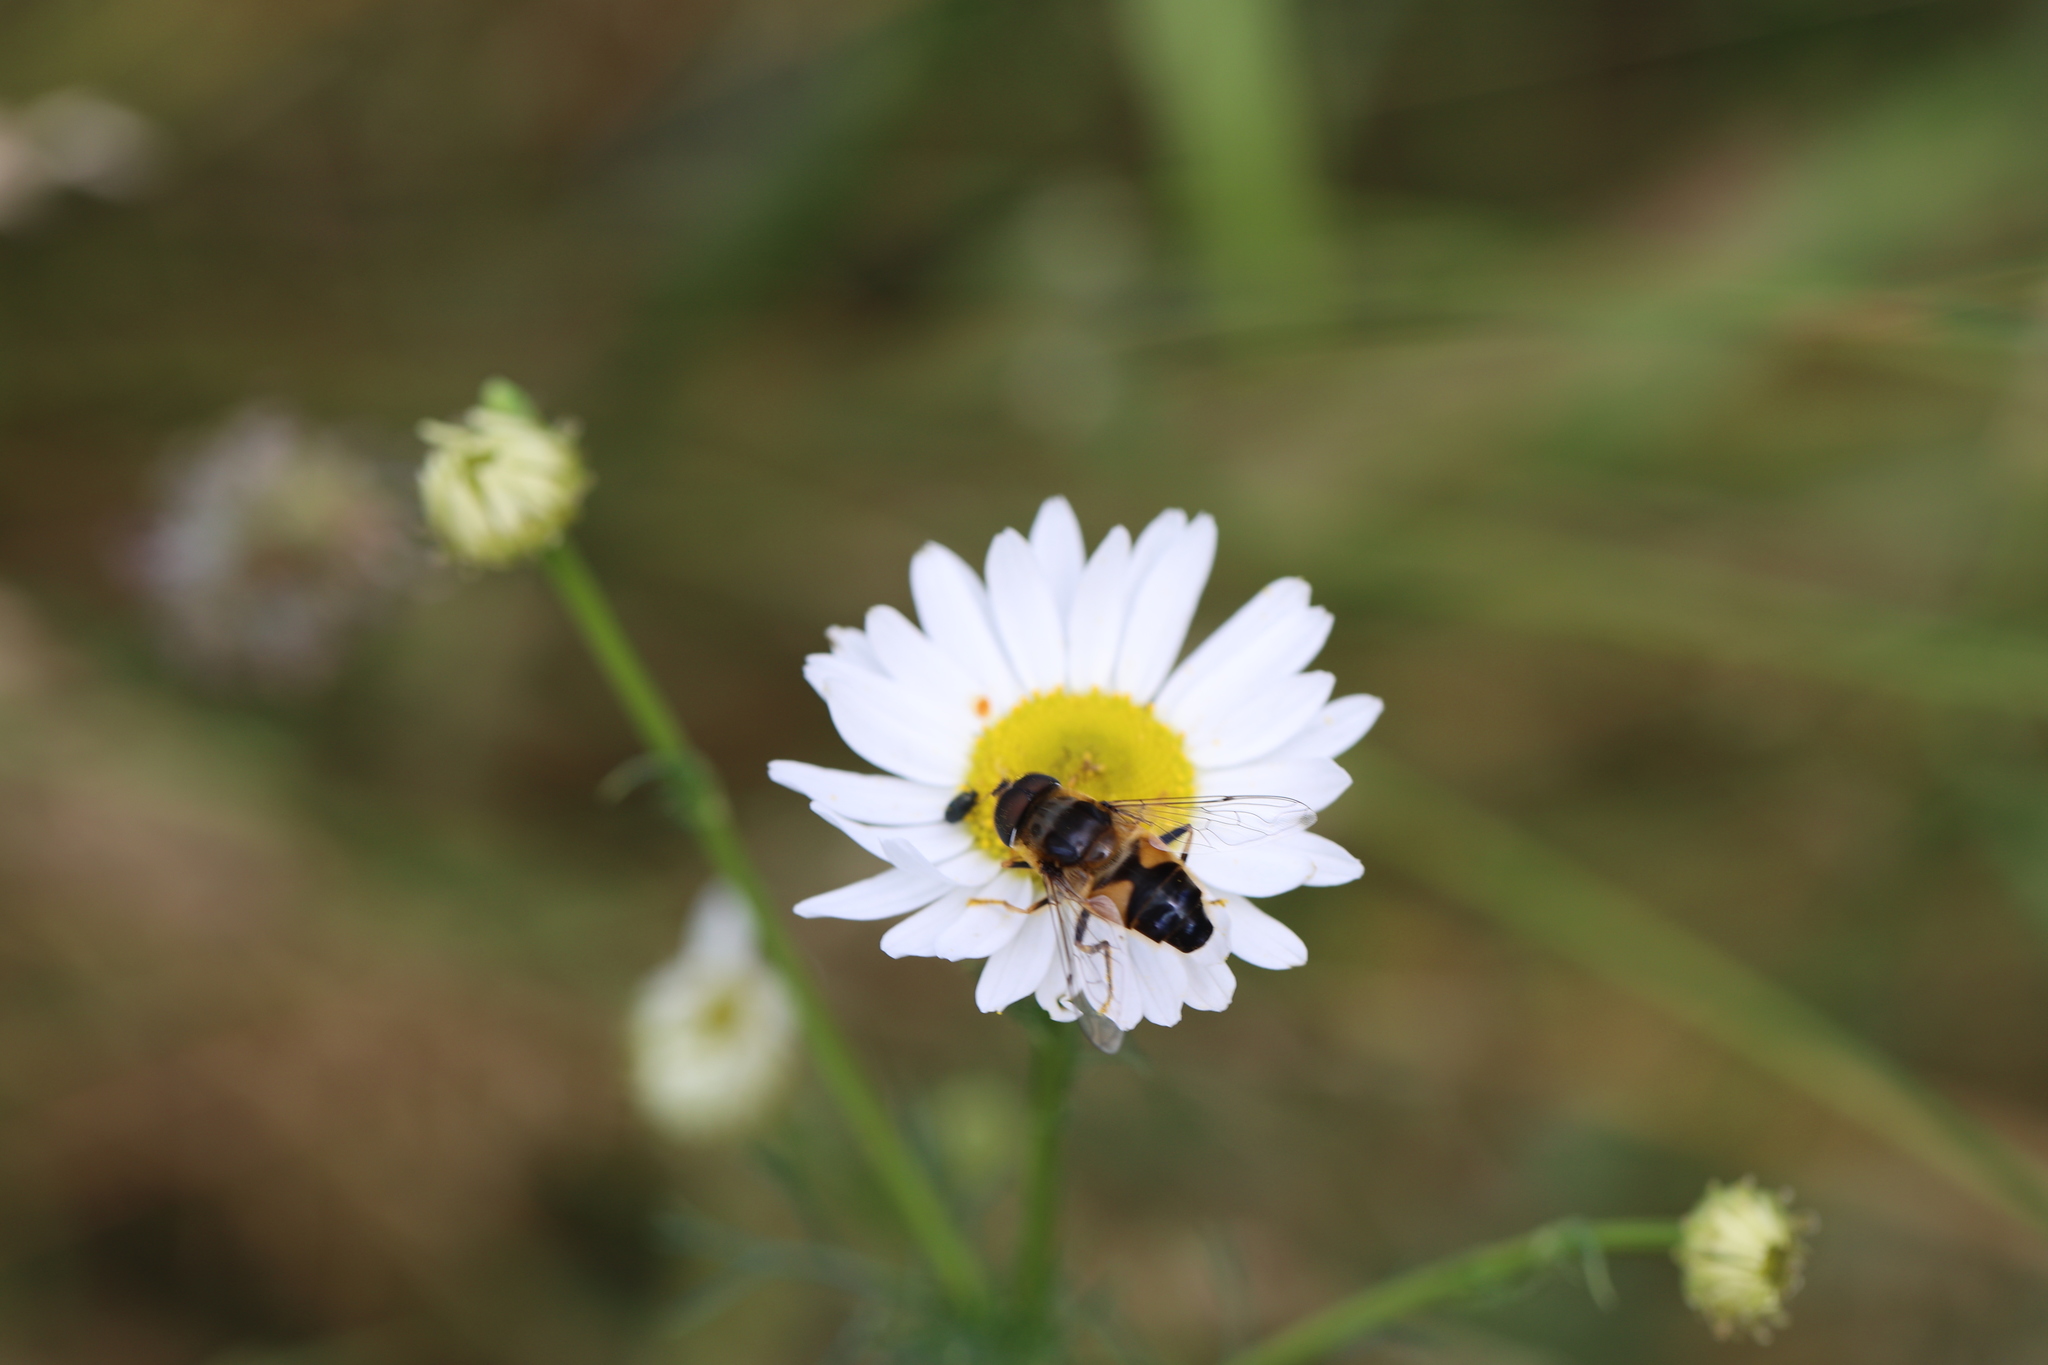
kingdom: Animalia
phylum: Arthropoda
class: Insecta
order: Diptera
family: Syrphidae
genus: Eristalis
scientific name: Eristalis pertinax
